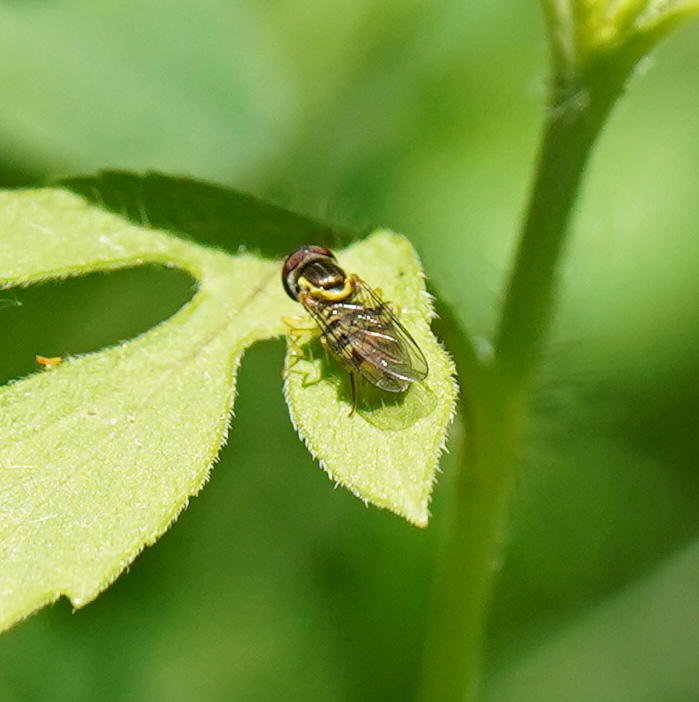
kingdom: Animalia
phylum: Arthropoda
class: Insecta
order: Diptera
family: Syrphidae
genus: Toxomerus
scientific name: Toxomerus geminatus
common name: Eastern calligrapher
